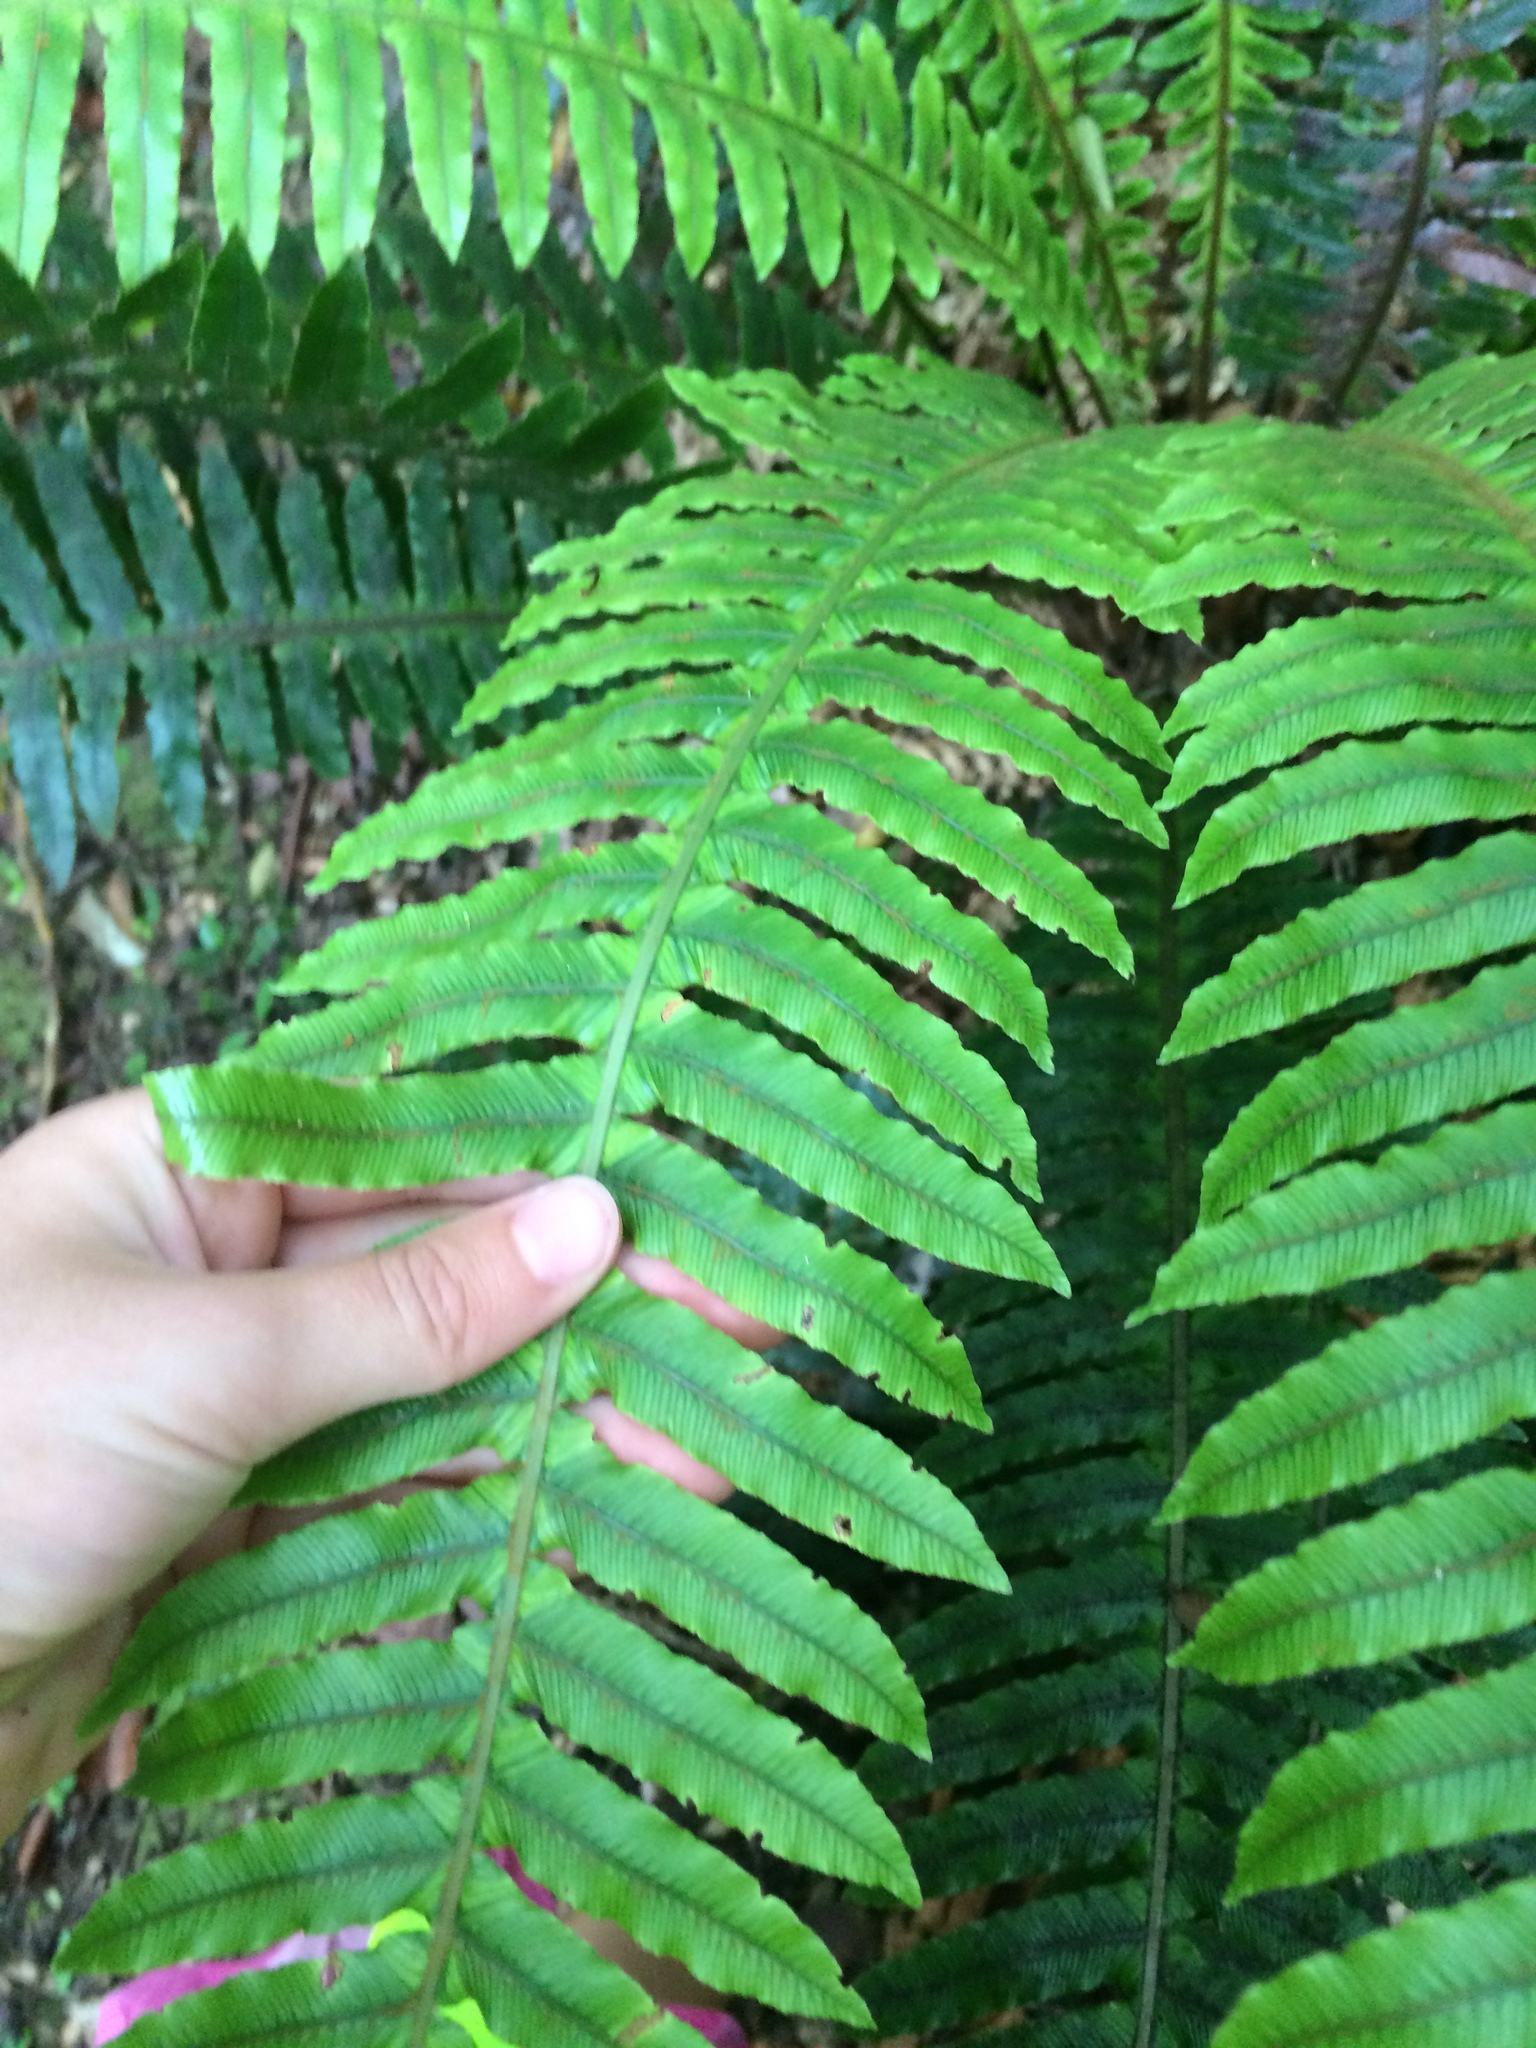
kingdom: Plantae
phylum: Tracheophyta
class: Polypodiopsida
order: Polypodiales
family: Blechnaceae
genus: Lomaria
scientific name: Lomaria discolor
